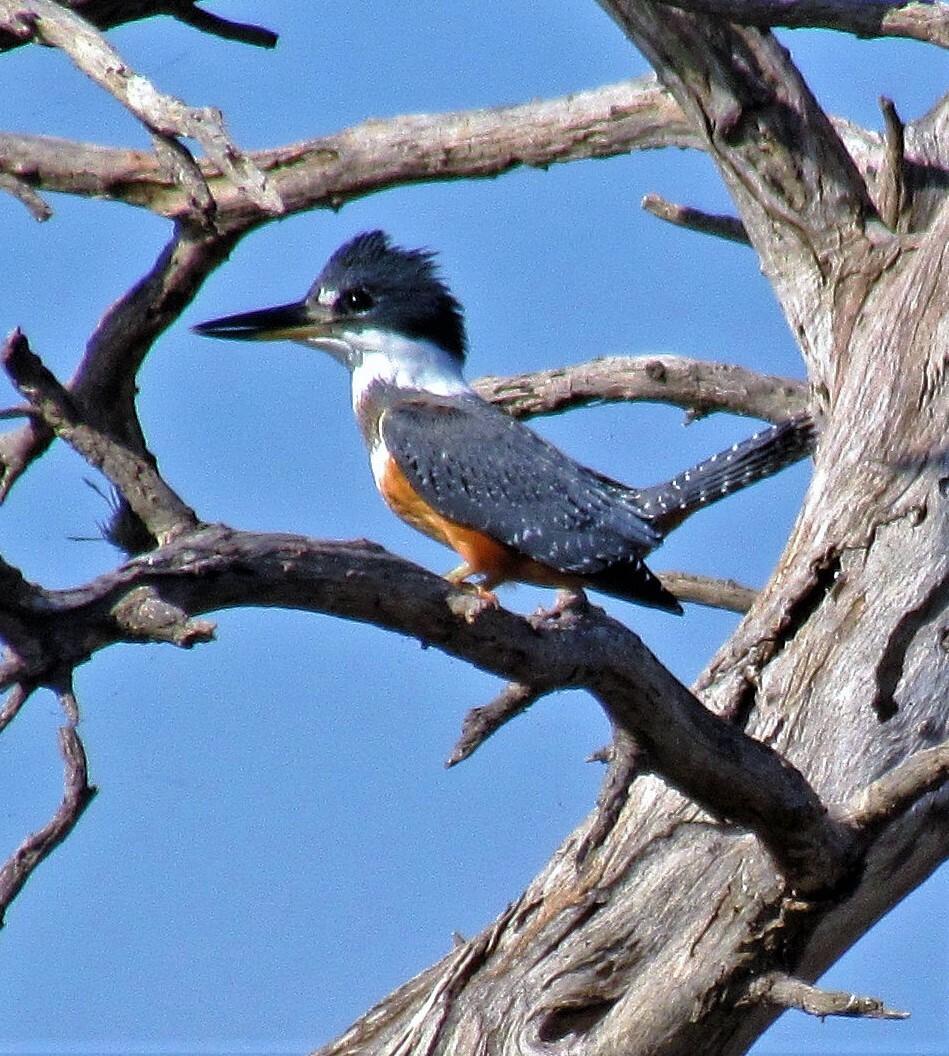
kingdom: Animalia
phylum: Chordata
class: Aves
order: Coraciiformes
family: Alcedinidae
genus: Megaceryle
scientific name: Megaceryle torquata
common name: Ringed kingfisher
